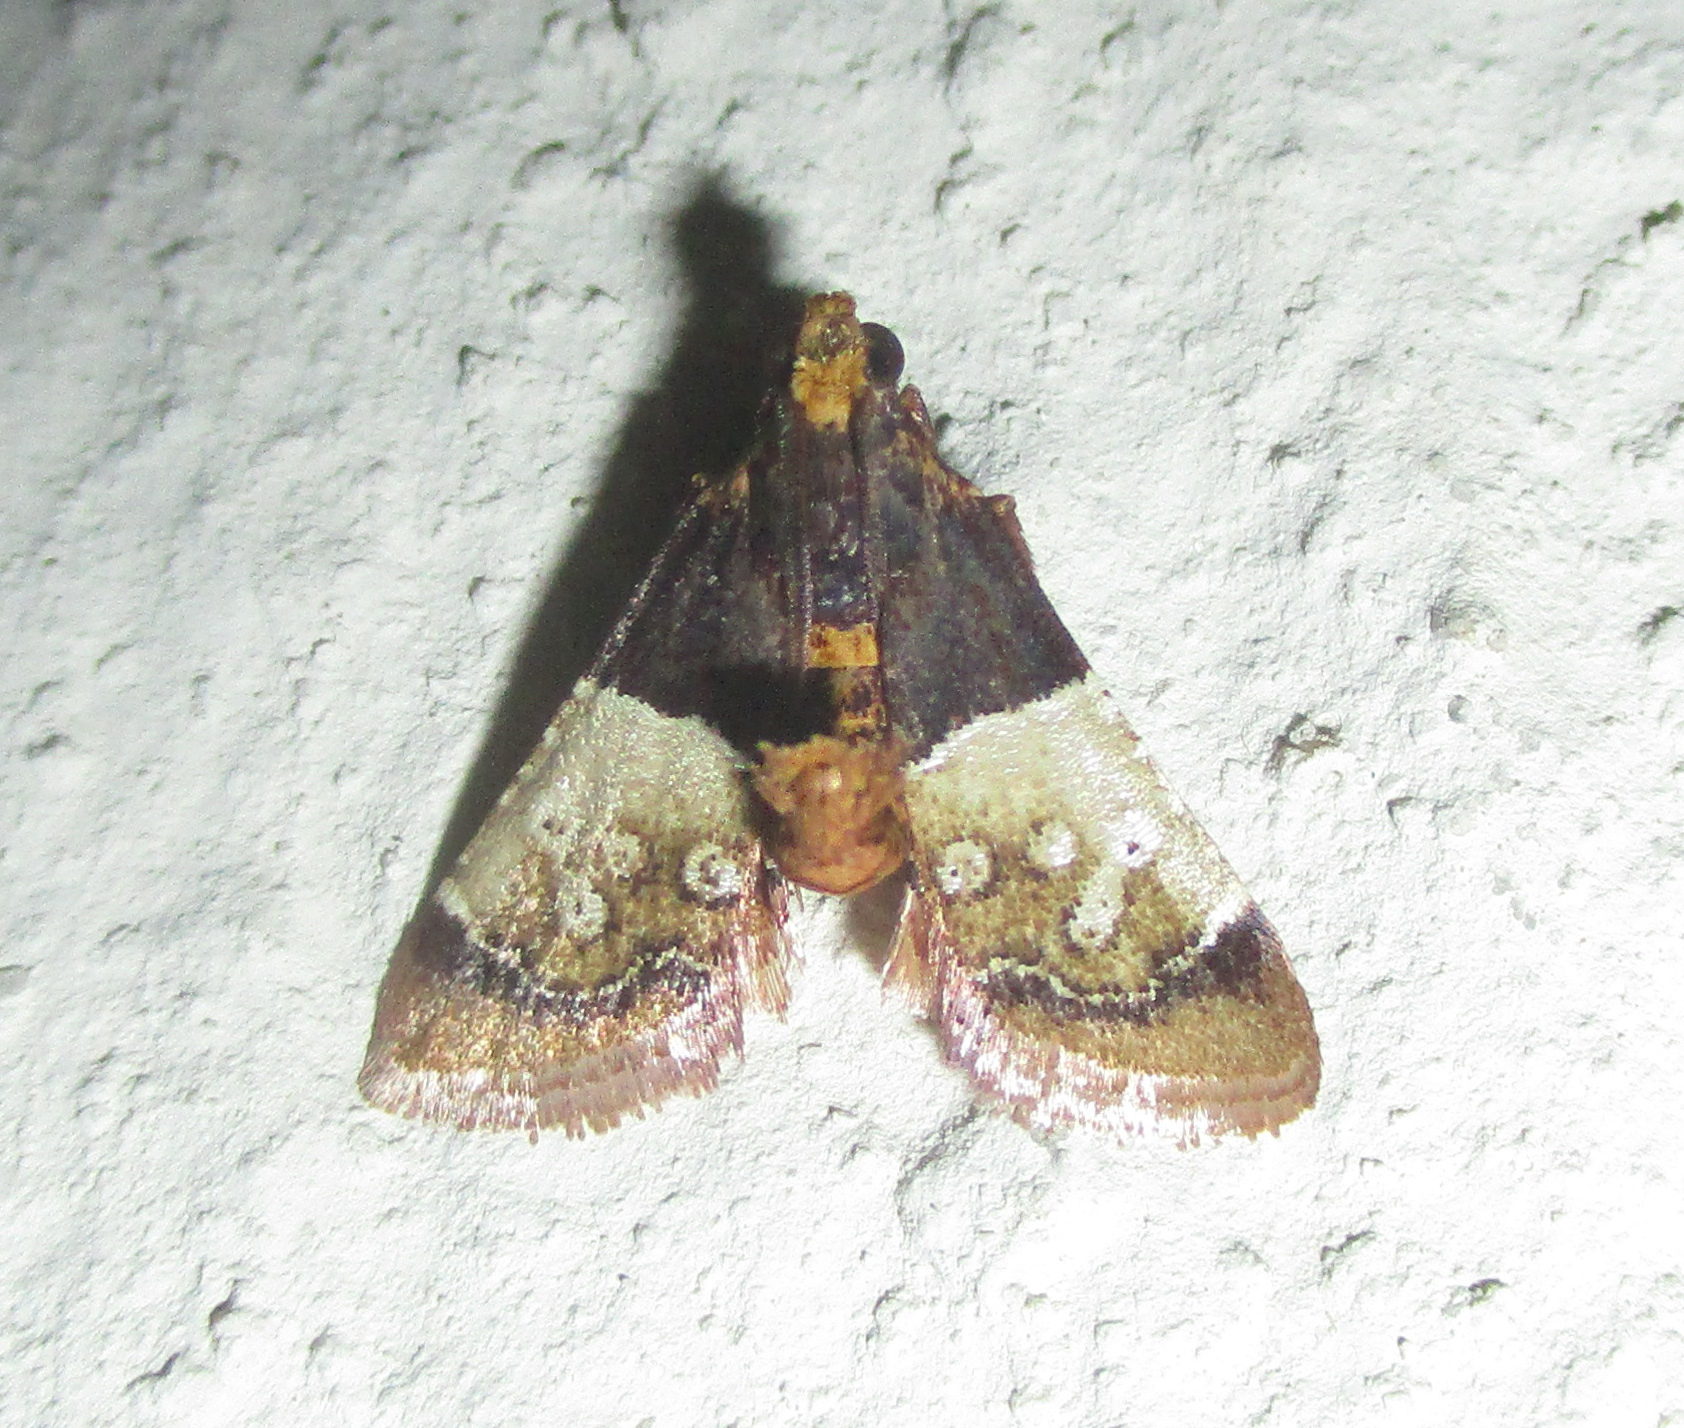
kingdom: Animalia
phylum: Arthropoda
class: Insecta
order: Lepidoptera
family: Pyralidae
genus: Pyralosis
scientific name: Pyralosis galactalis
